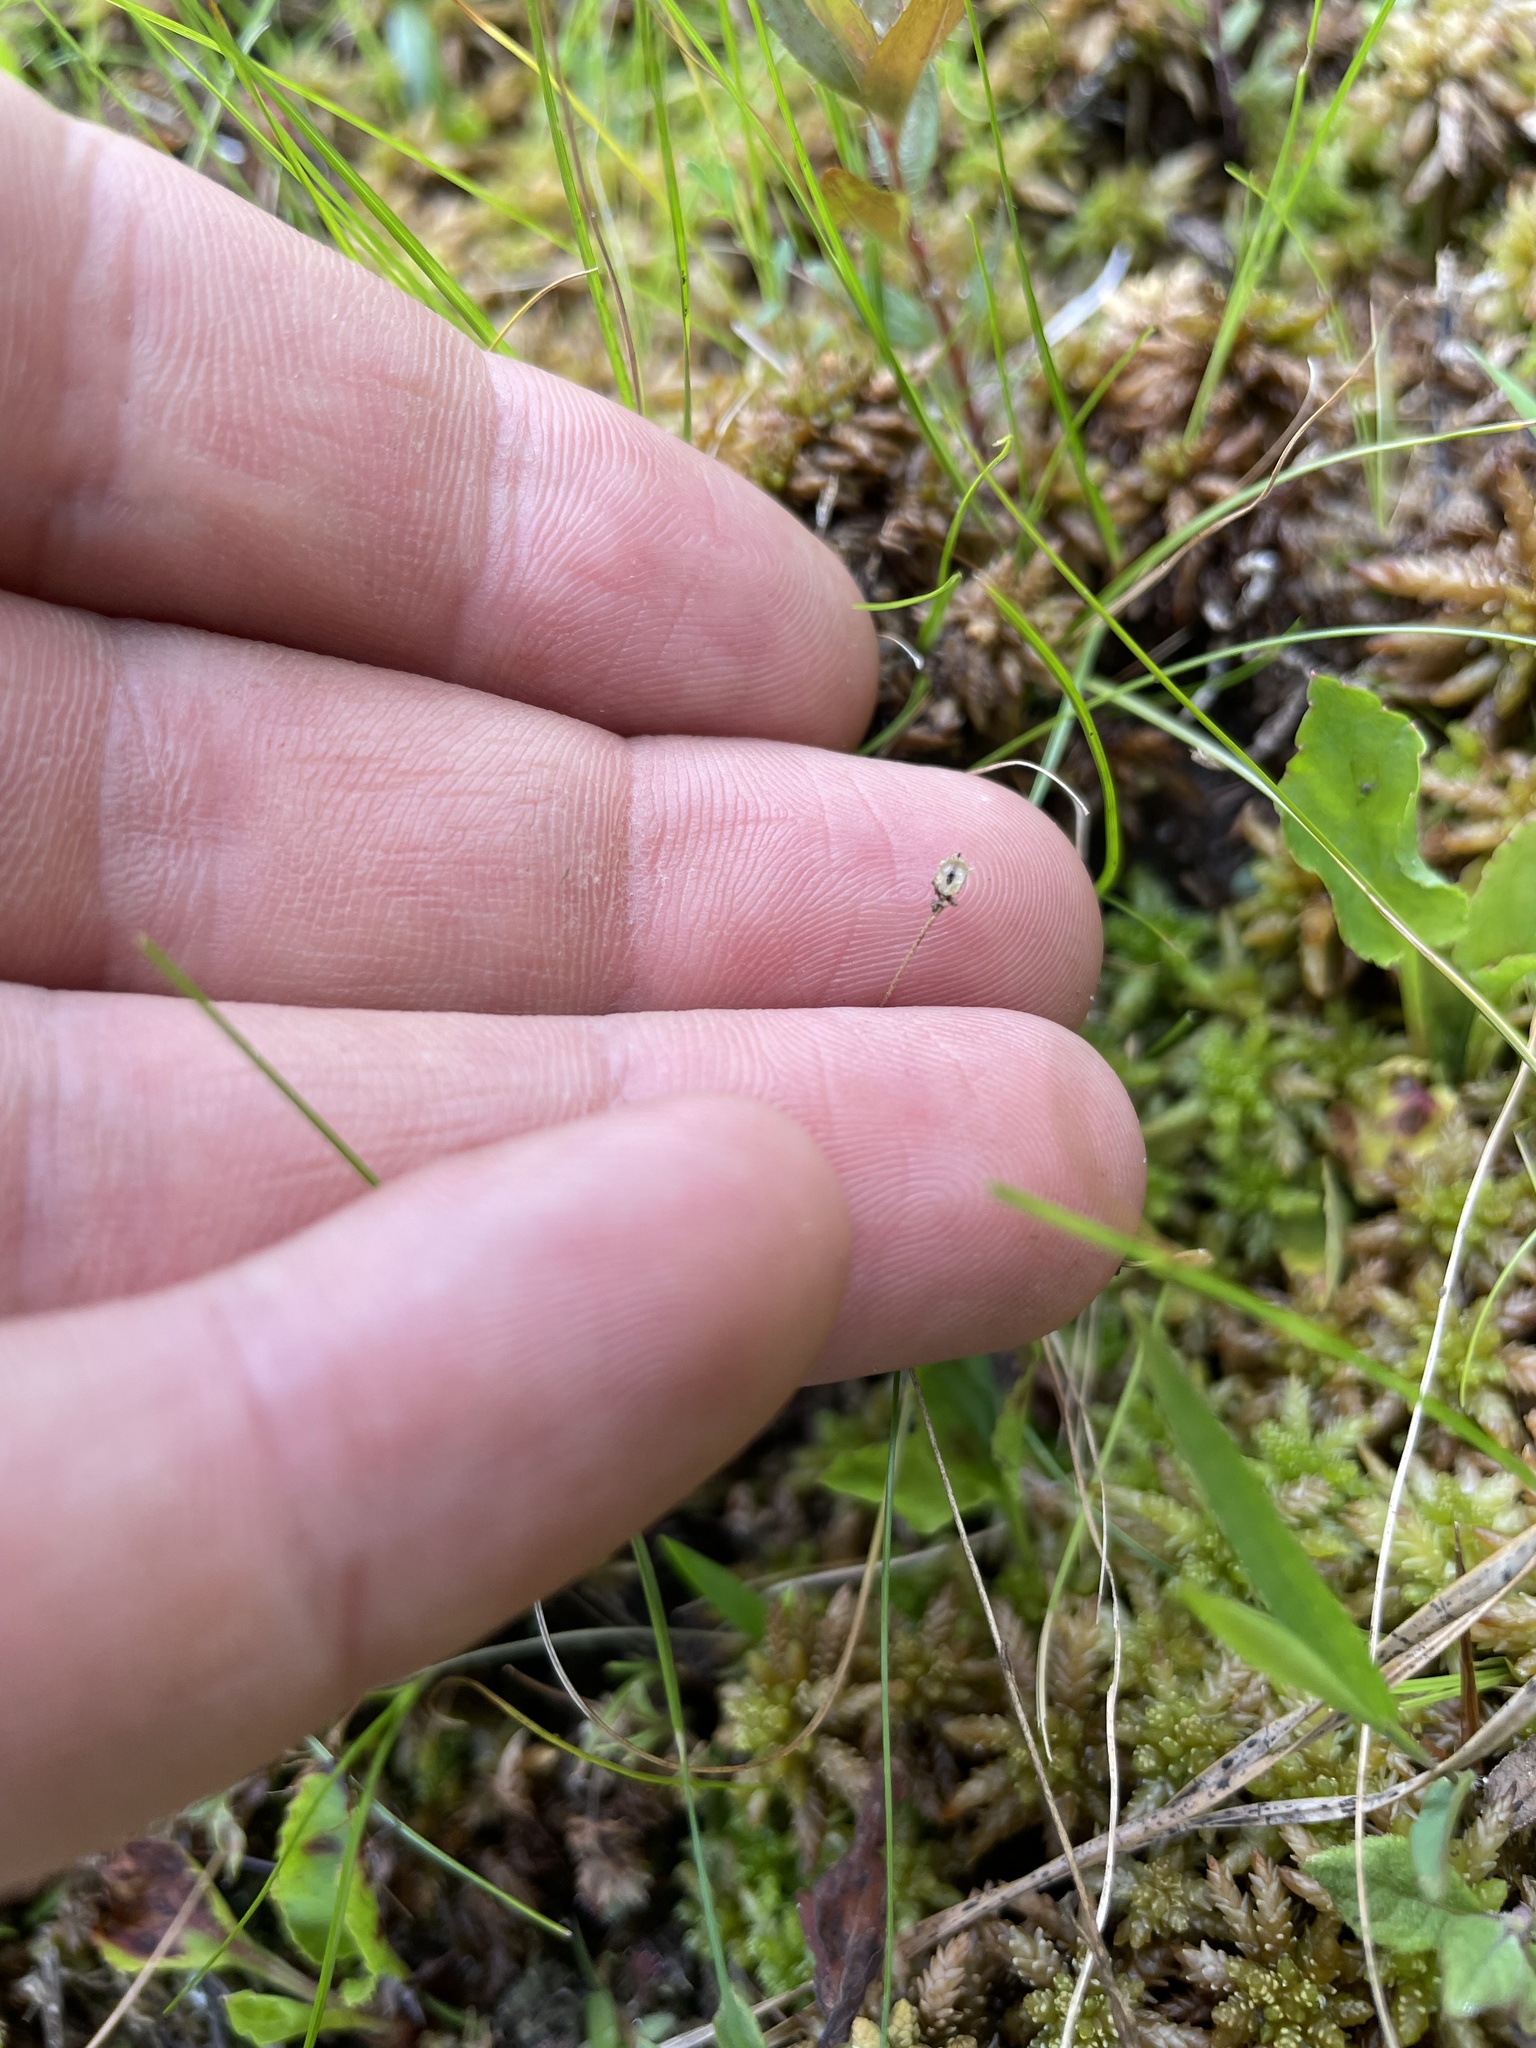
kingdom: Plantae
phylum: Tracheophyta
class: Magnoliopsida
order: Caryophyllales
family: Droseraceae
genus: Drosera
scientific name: Drosera capillaris
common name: Pink sundew
